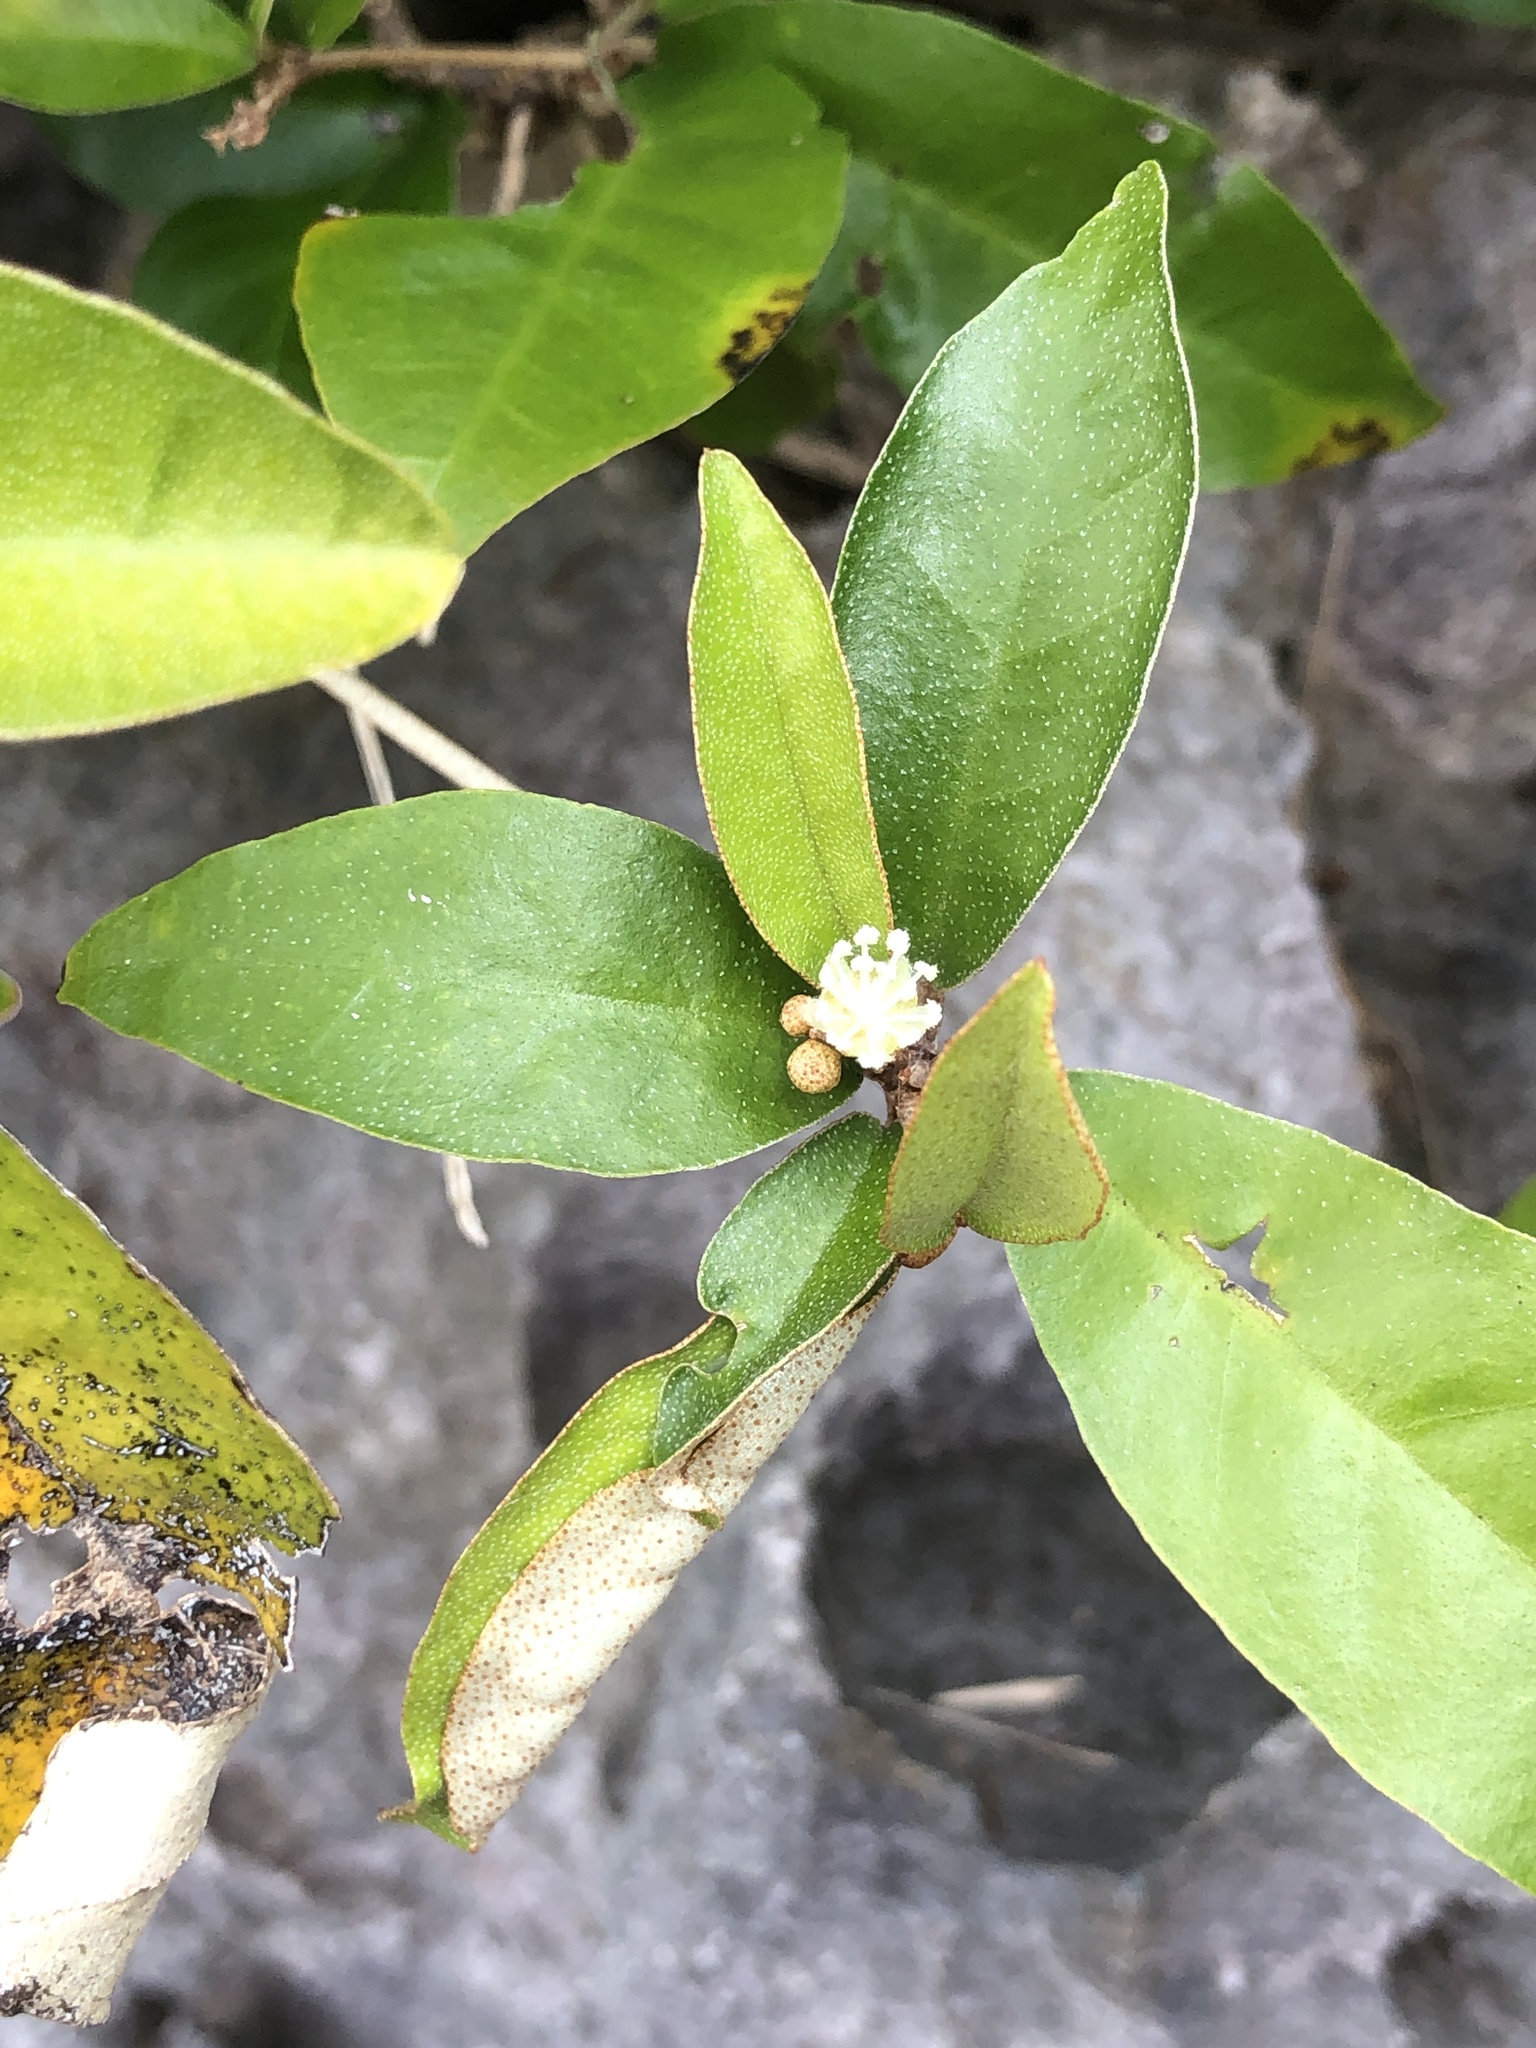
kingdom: Plantae
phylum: Tracheophyta
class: Magnoliopsida
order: Malpighiales
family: Euphorbiaceae
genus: Croton
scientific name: Croton cascarilloides
